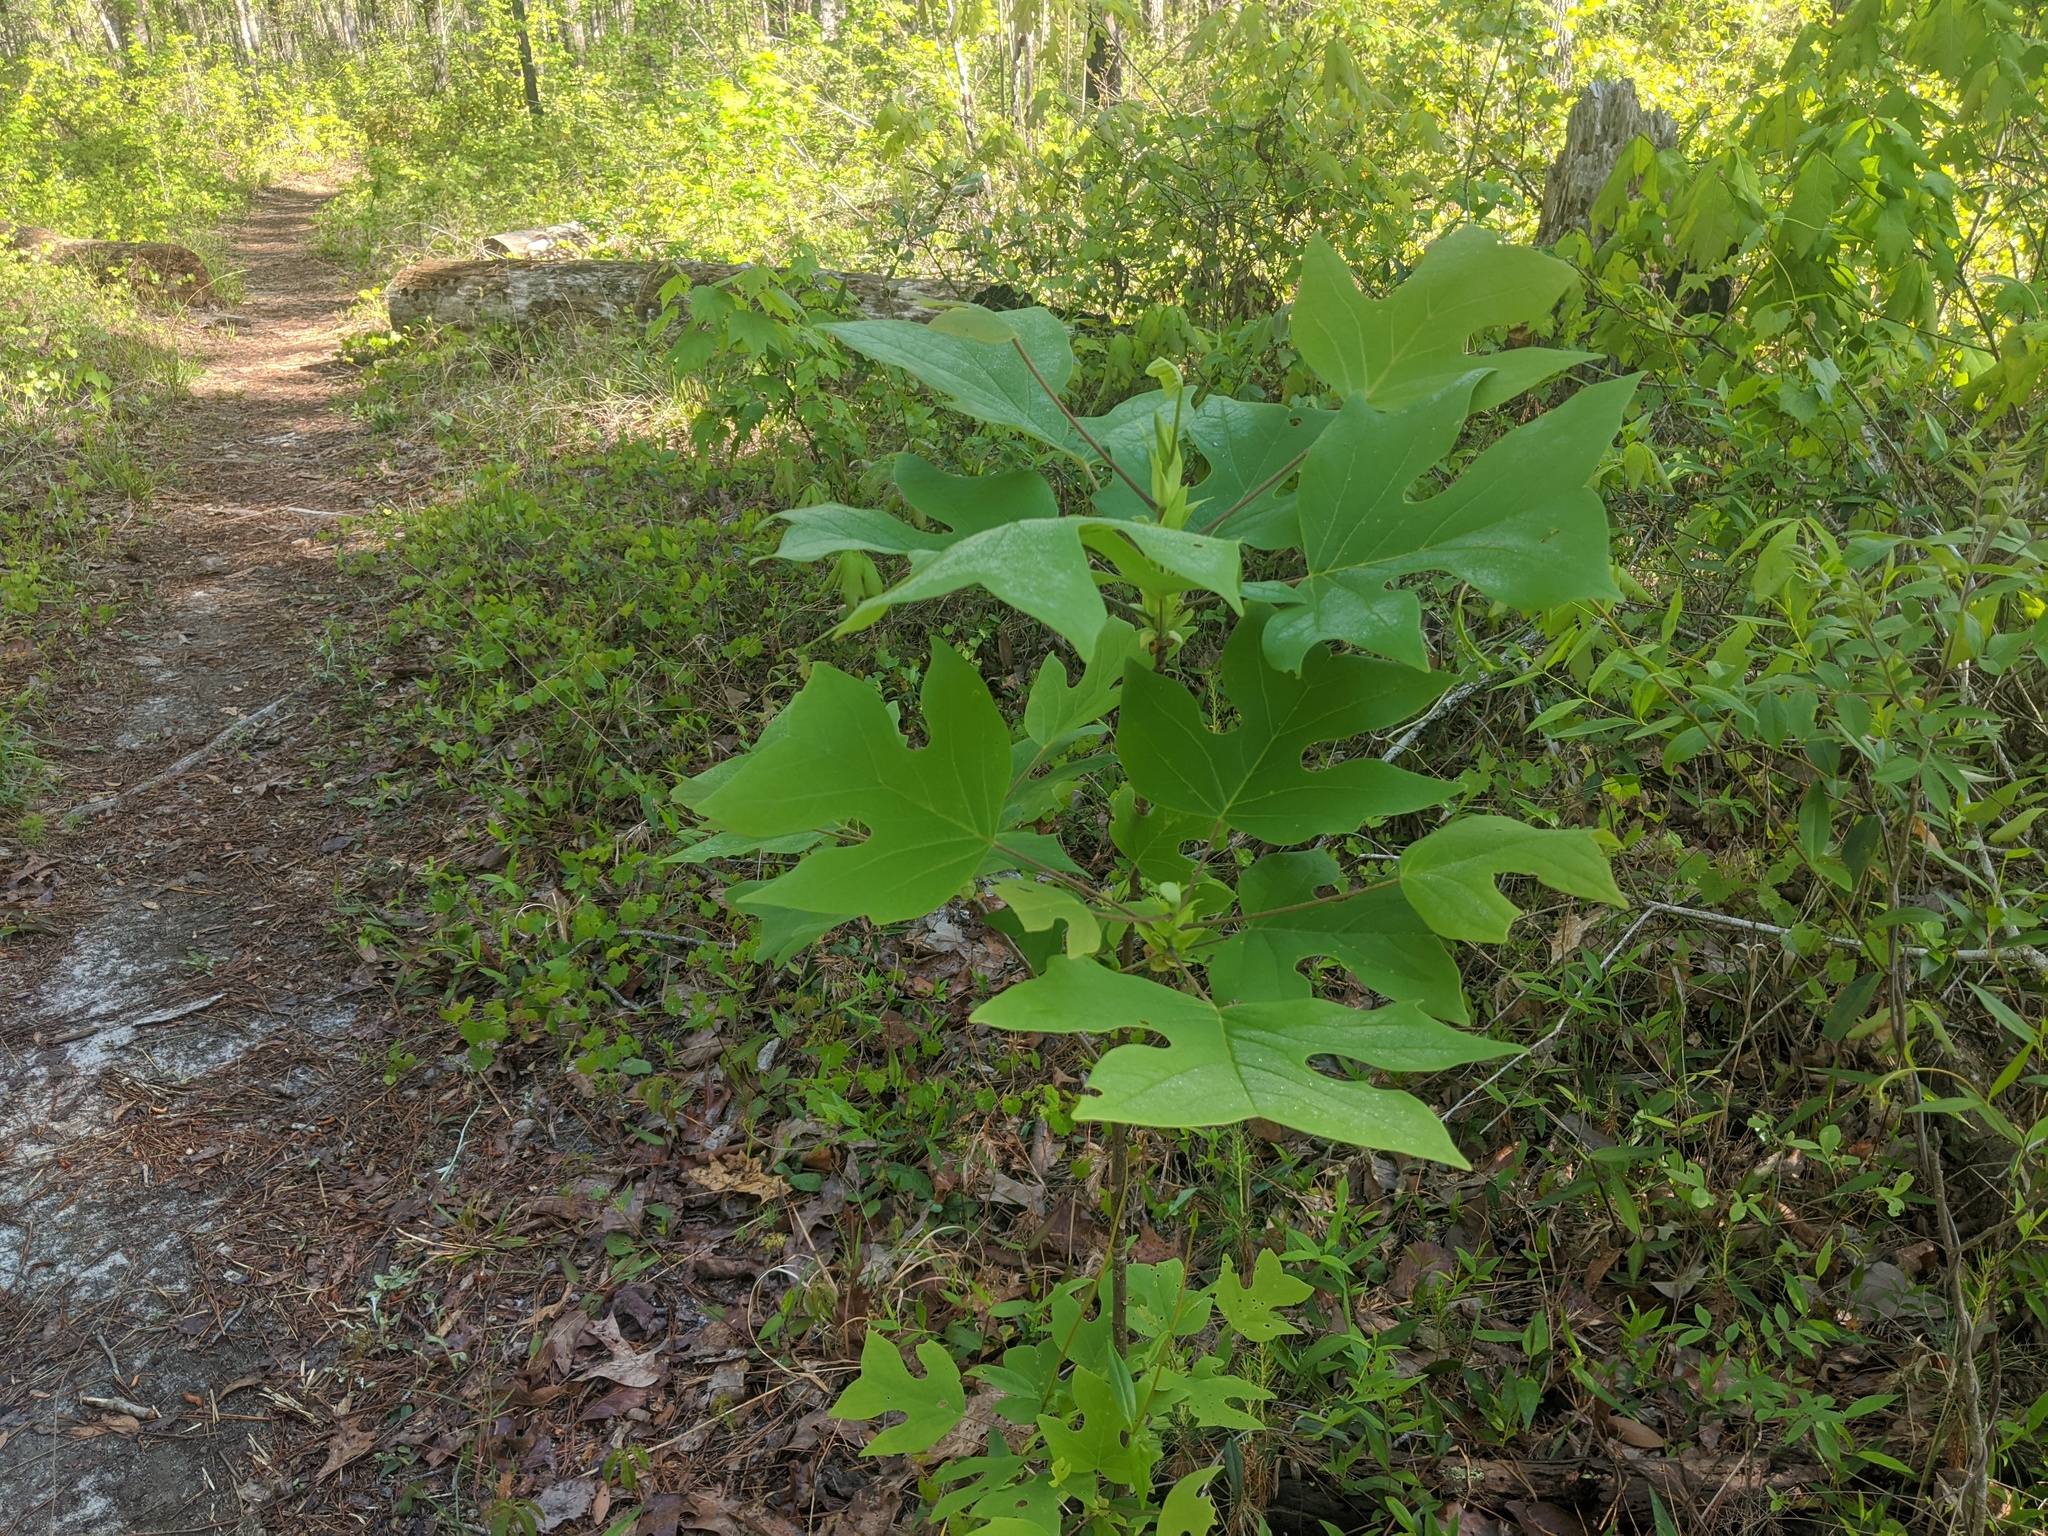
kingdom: Plantae
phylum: Tracheophyta
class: Magnoliopsida
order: Magnoliales
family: Magnoliaceae
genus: Liriodendron
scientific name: Liriodendron tulipifera
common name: Tulip tree
